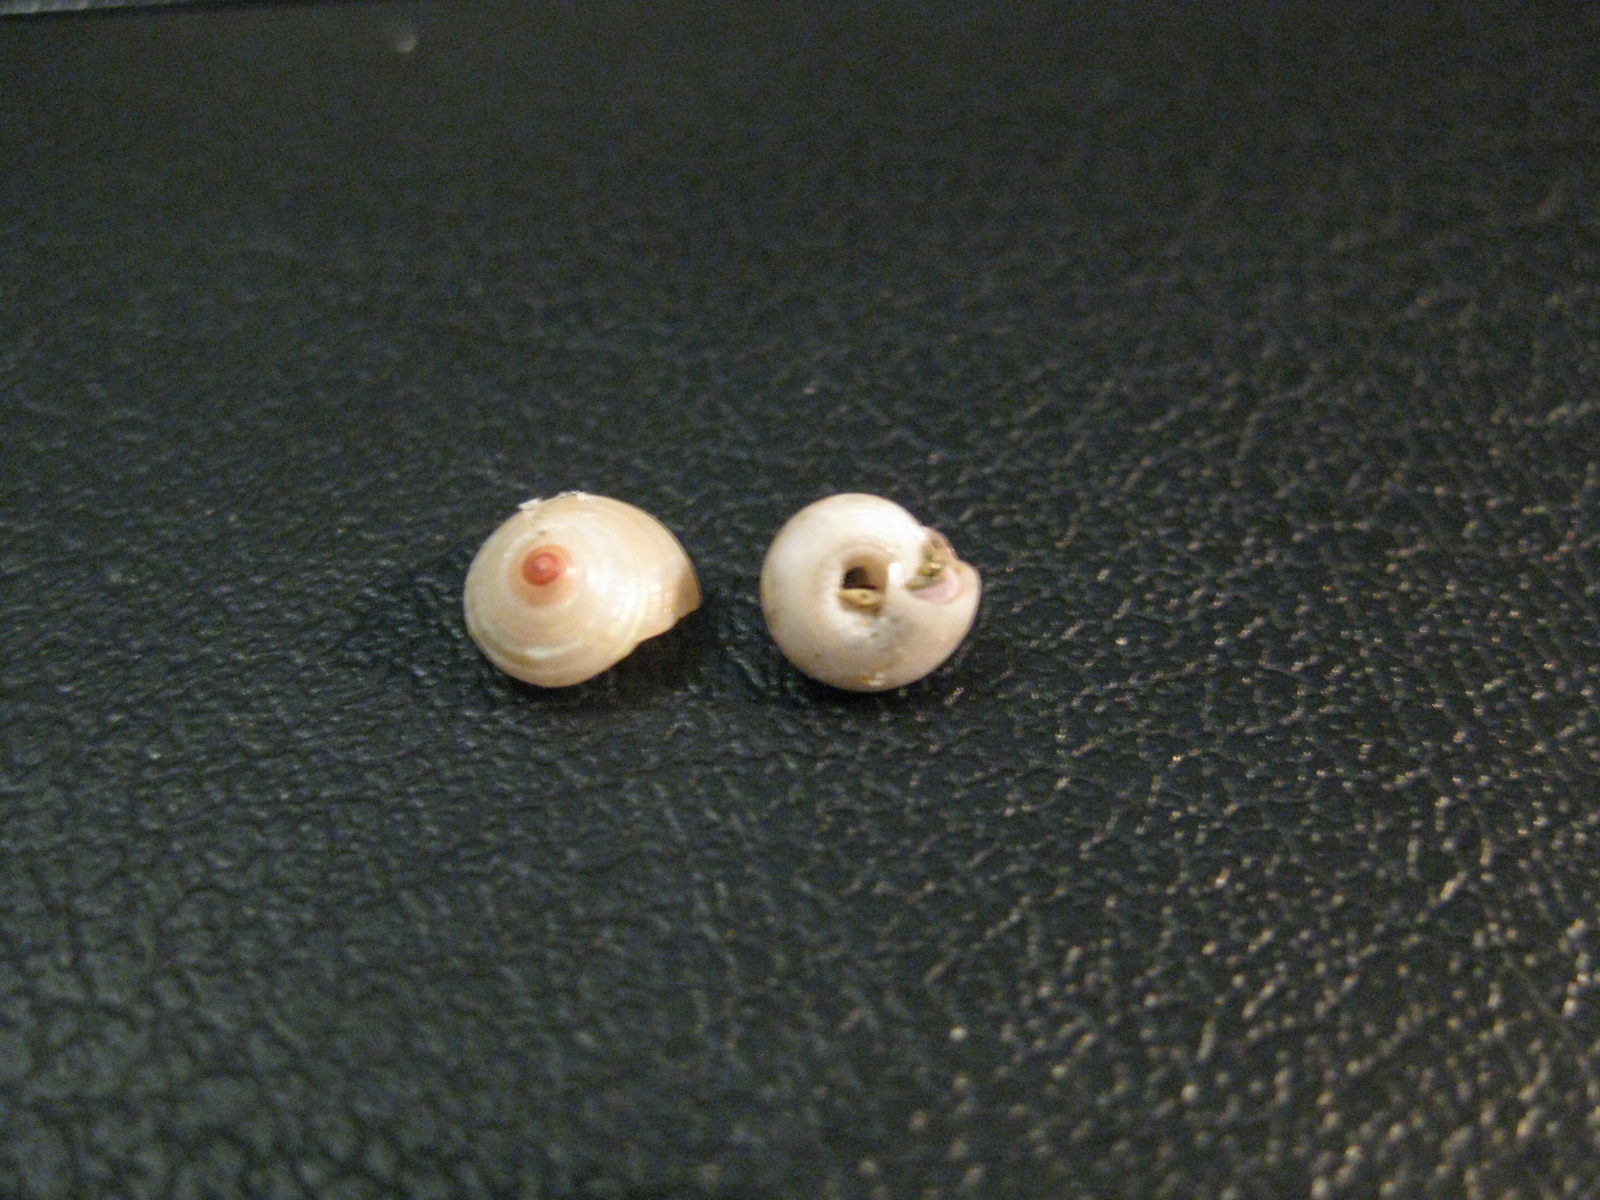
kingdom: Animalia
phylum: Mollusca
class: Gastropoda
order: Trochida
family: Trochidae
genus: Antisolarium
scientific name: Antisolarium egenum
